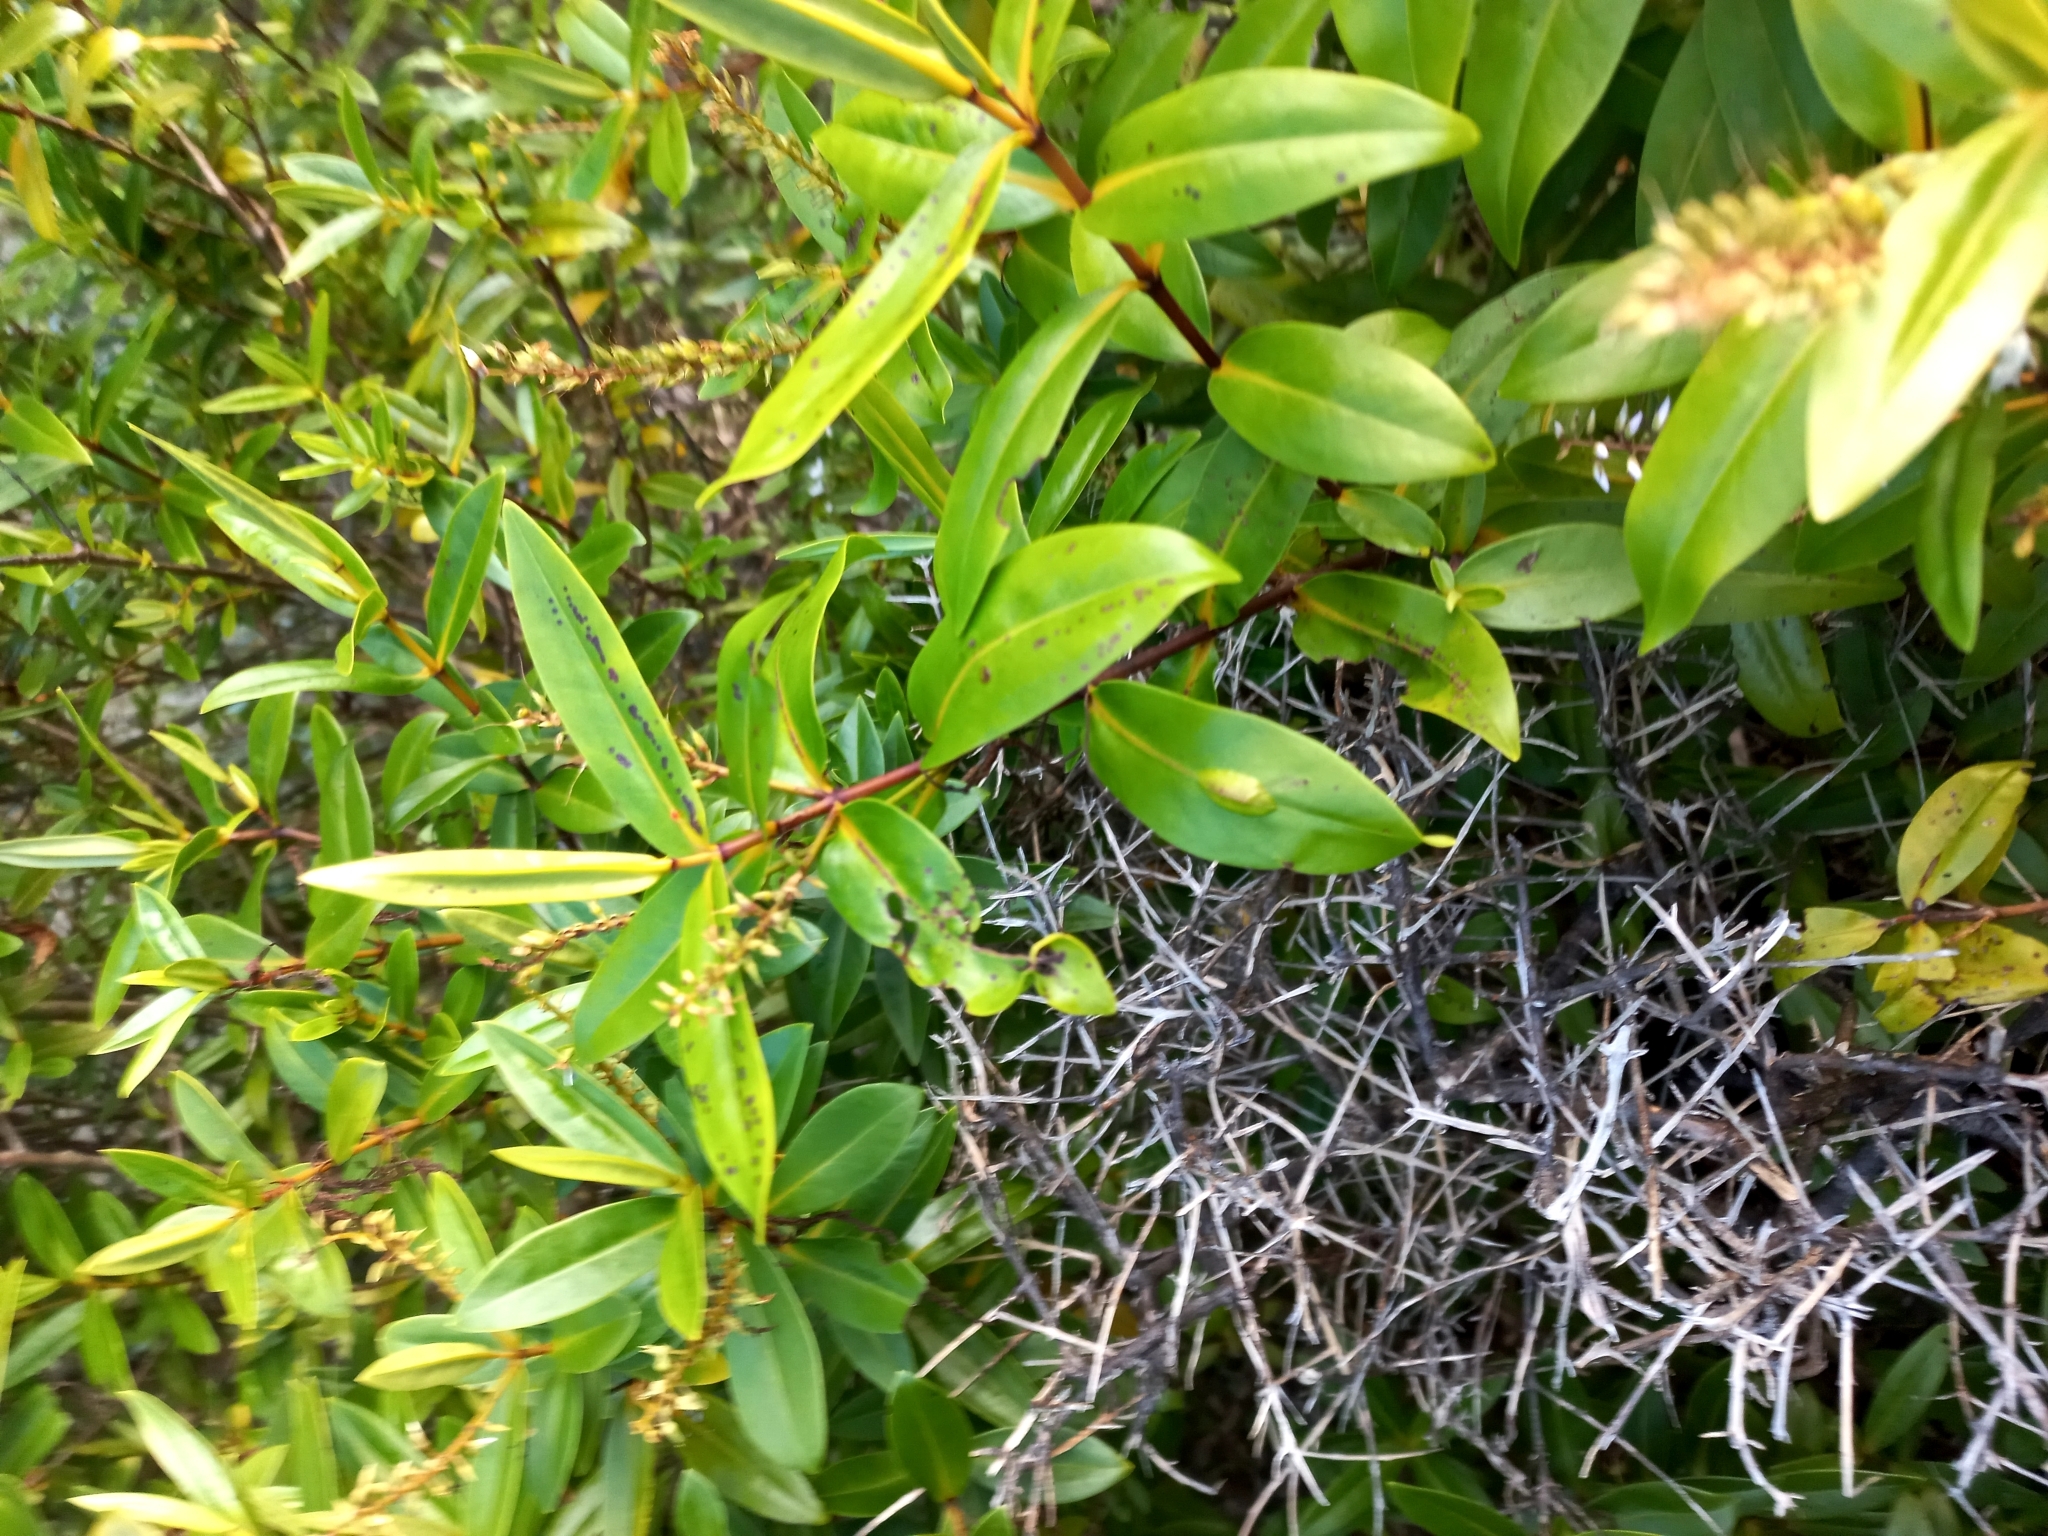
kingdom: Plantae
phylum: Tracheophyta
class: Magnoliopsida
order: Lamiales
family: Plantaginaceae
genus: Veronica
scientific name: Veronica ligustrifolia
